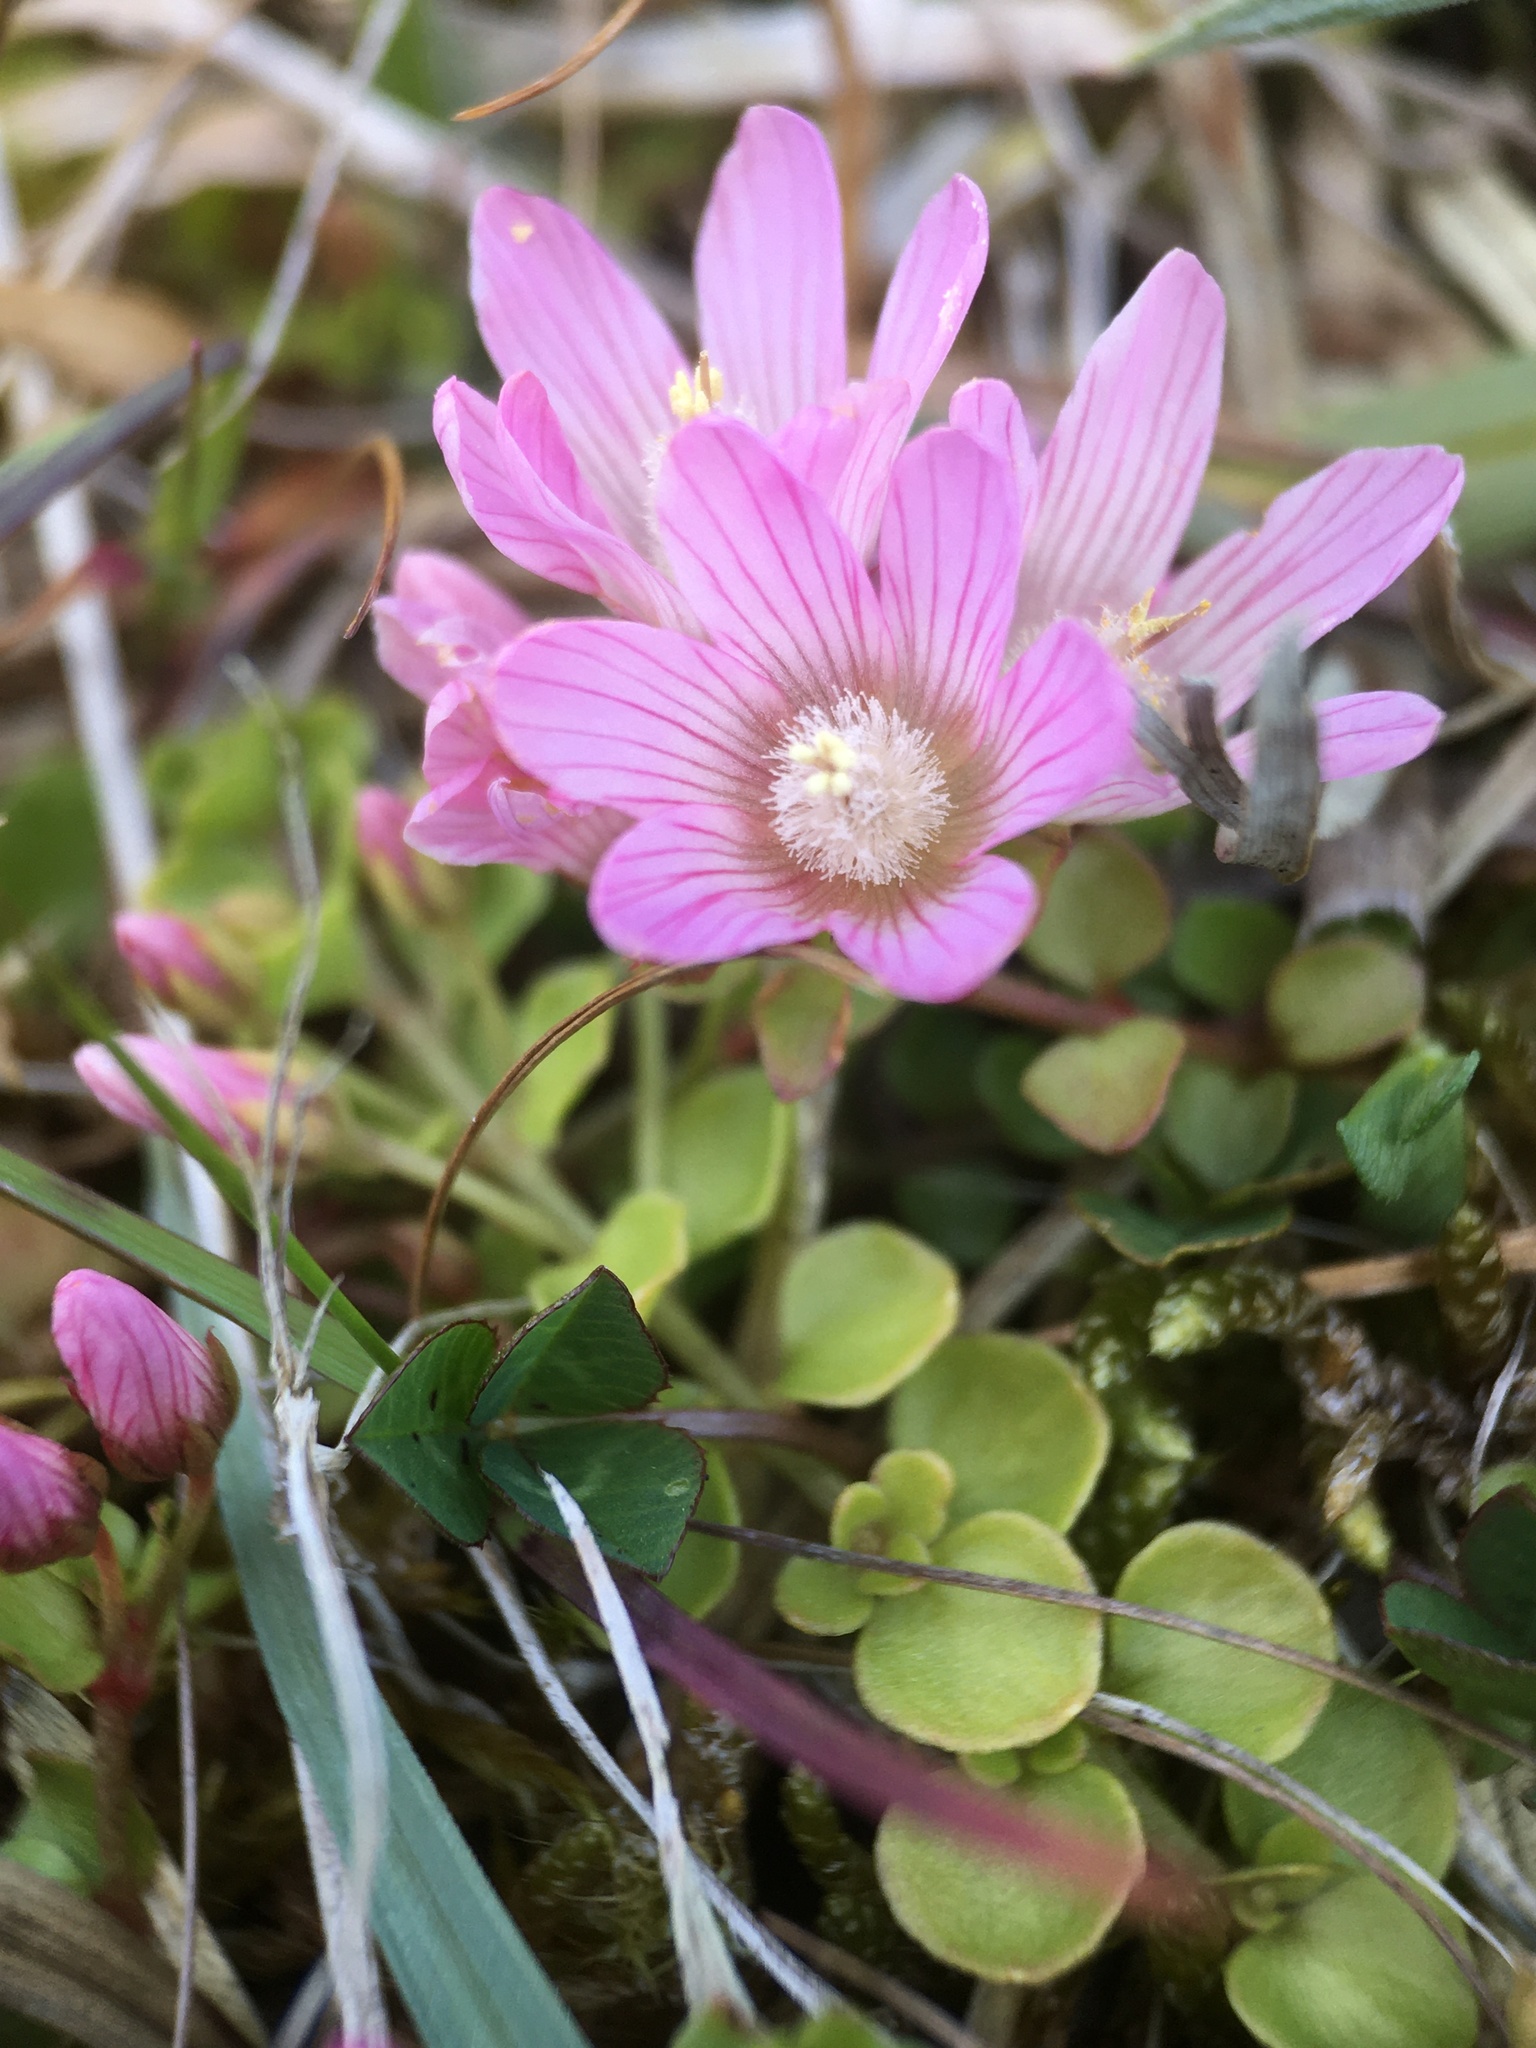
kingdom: Plantae
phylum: Tracheophyta
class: Magnoliopsida
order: Ericales
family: Primulaceae
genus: Lysimachia
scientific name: Lysimachia tenella
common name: European bog pimpernel
